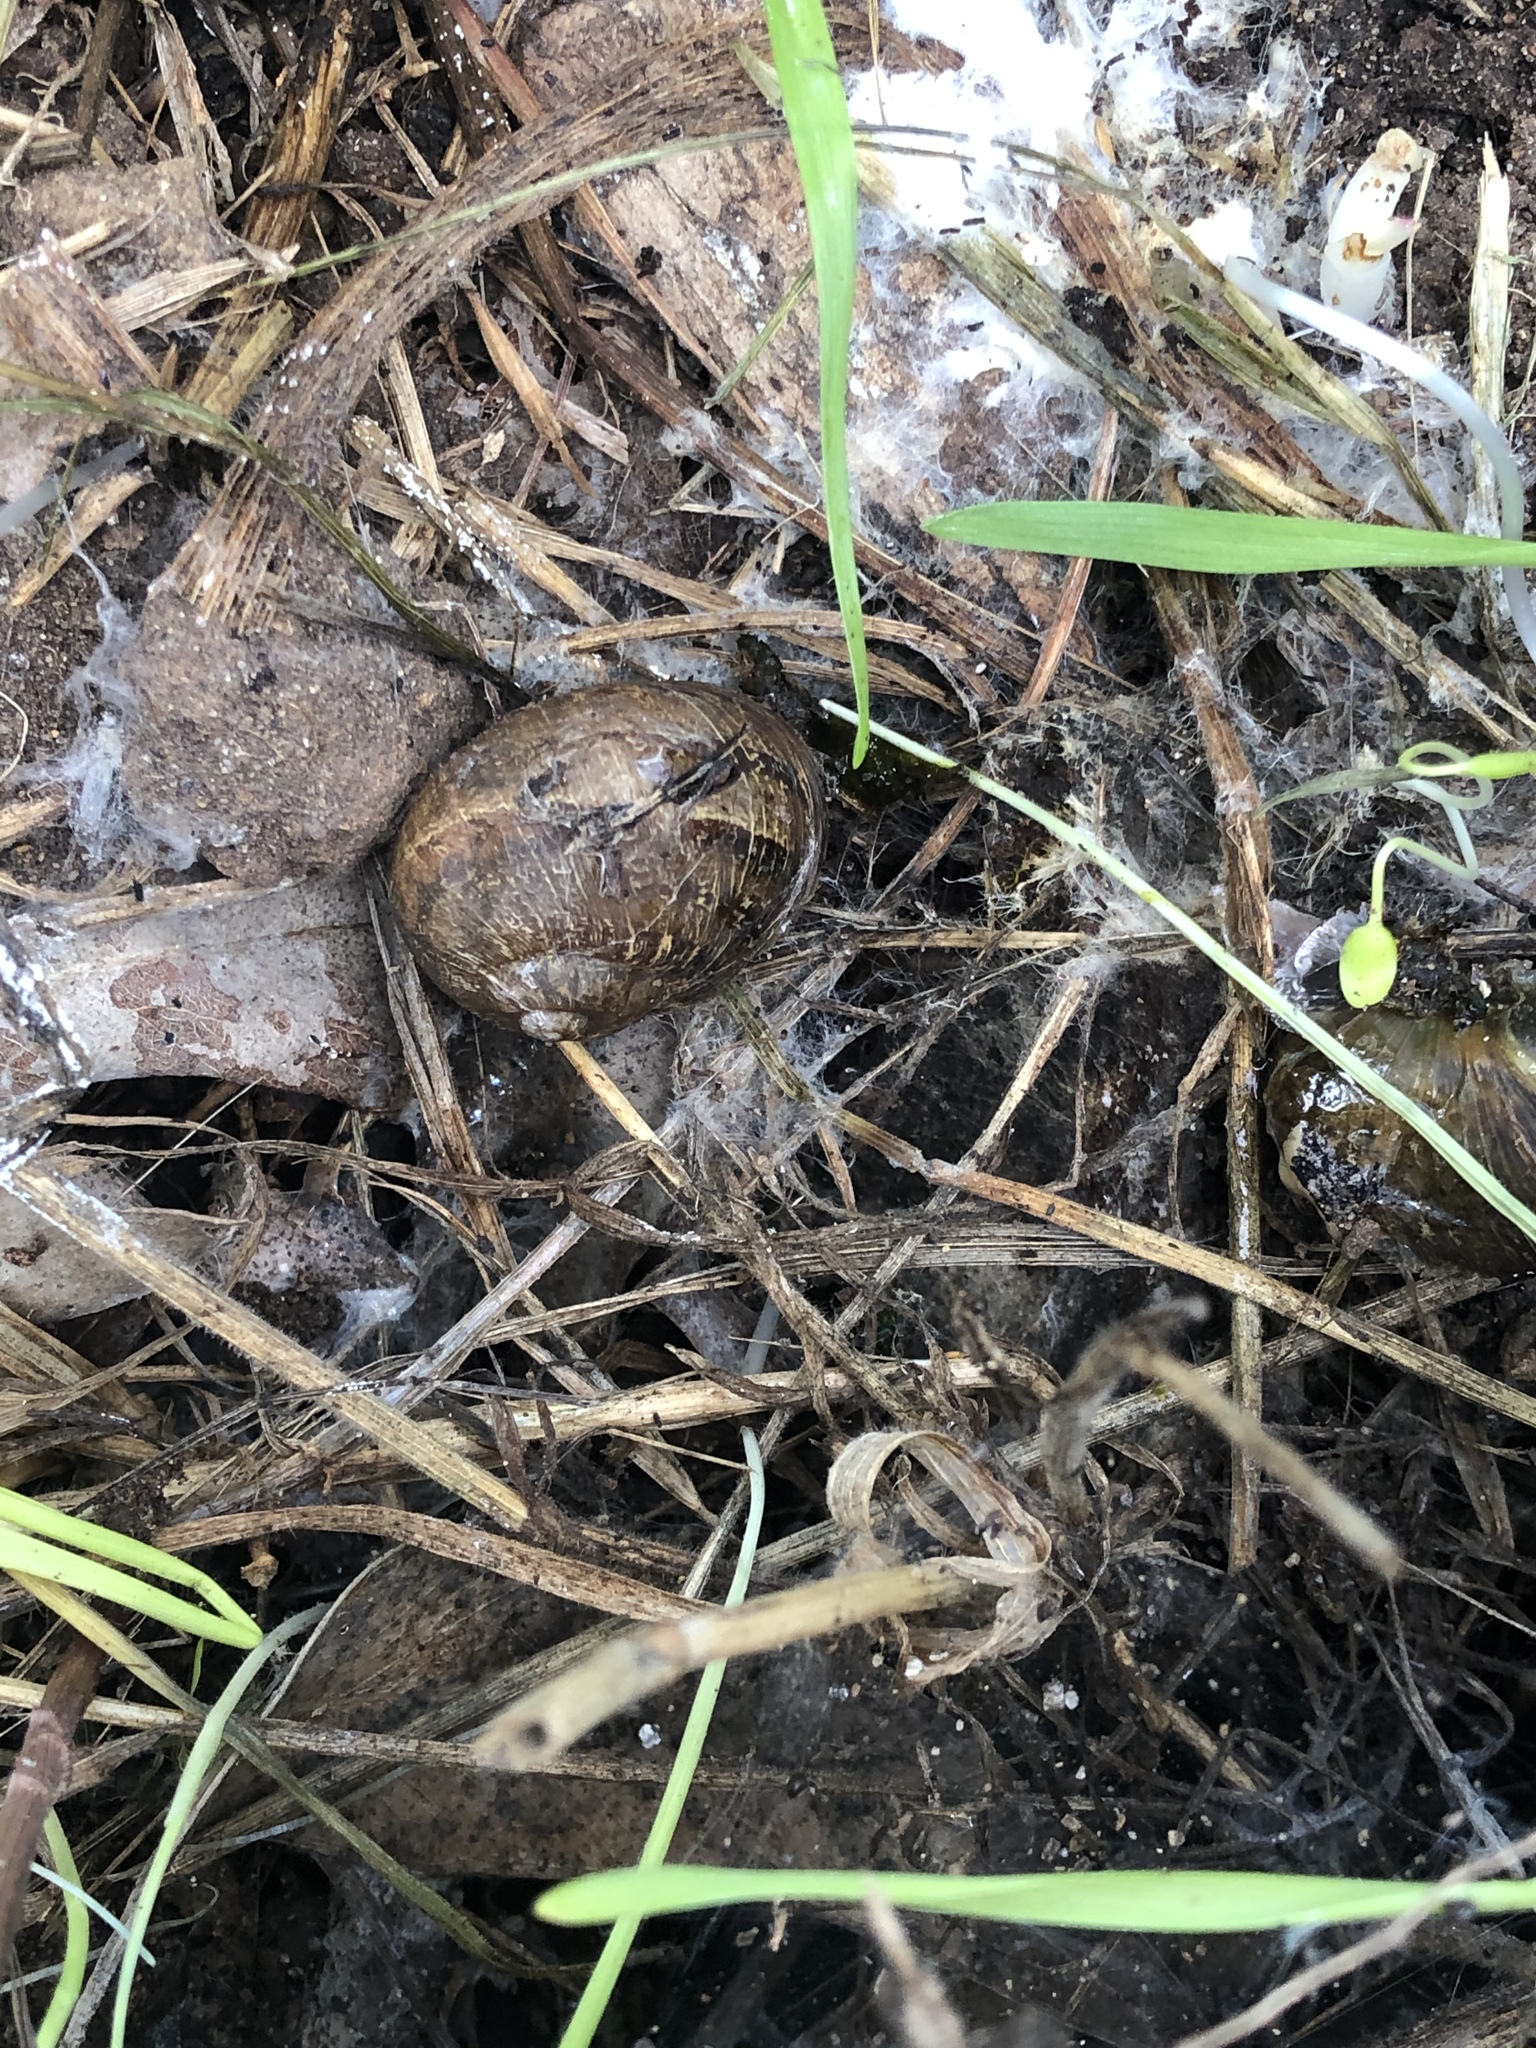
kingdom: Animalia
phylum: Mollusca
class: Gastropoda
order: Stylommatophora
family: Helicidae
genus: Cornu
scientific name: Cornu aspersum
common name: Brown garden snail
